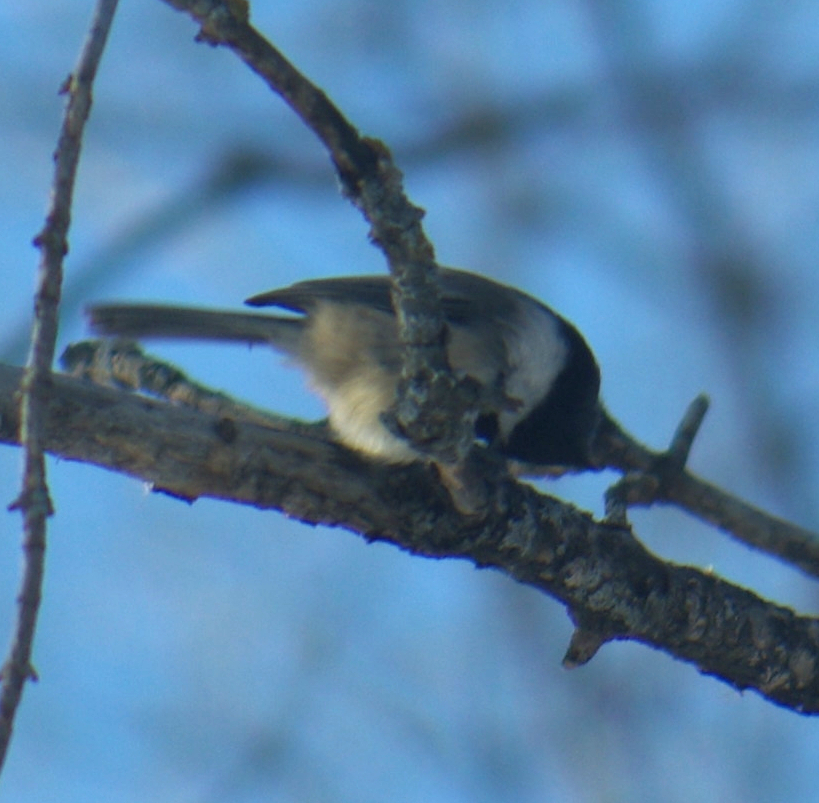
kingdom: Animalia
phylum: Chordata
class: Aves
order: Passeriformes
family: Paridae
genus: Poecile
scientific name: Poecile atricapillus
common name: Black-capped chickadee
